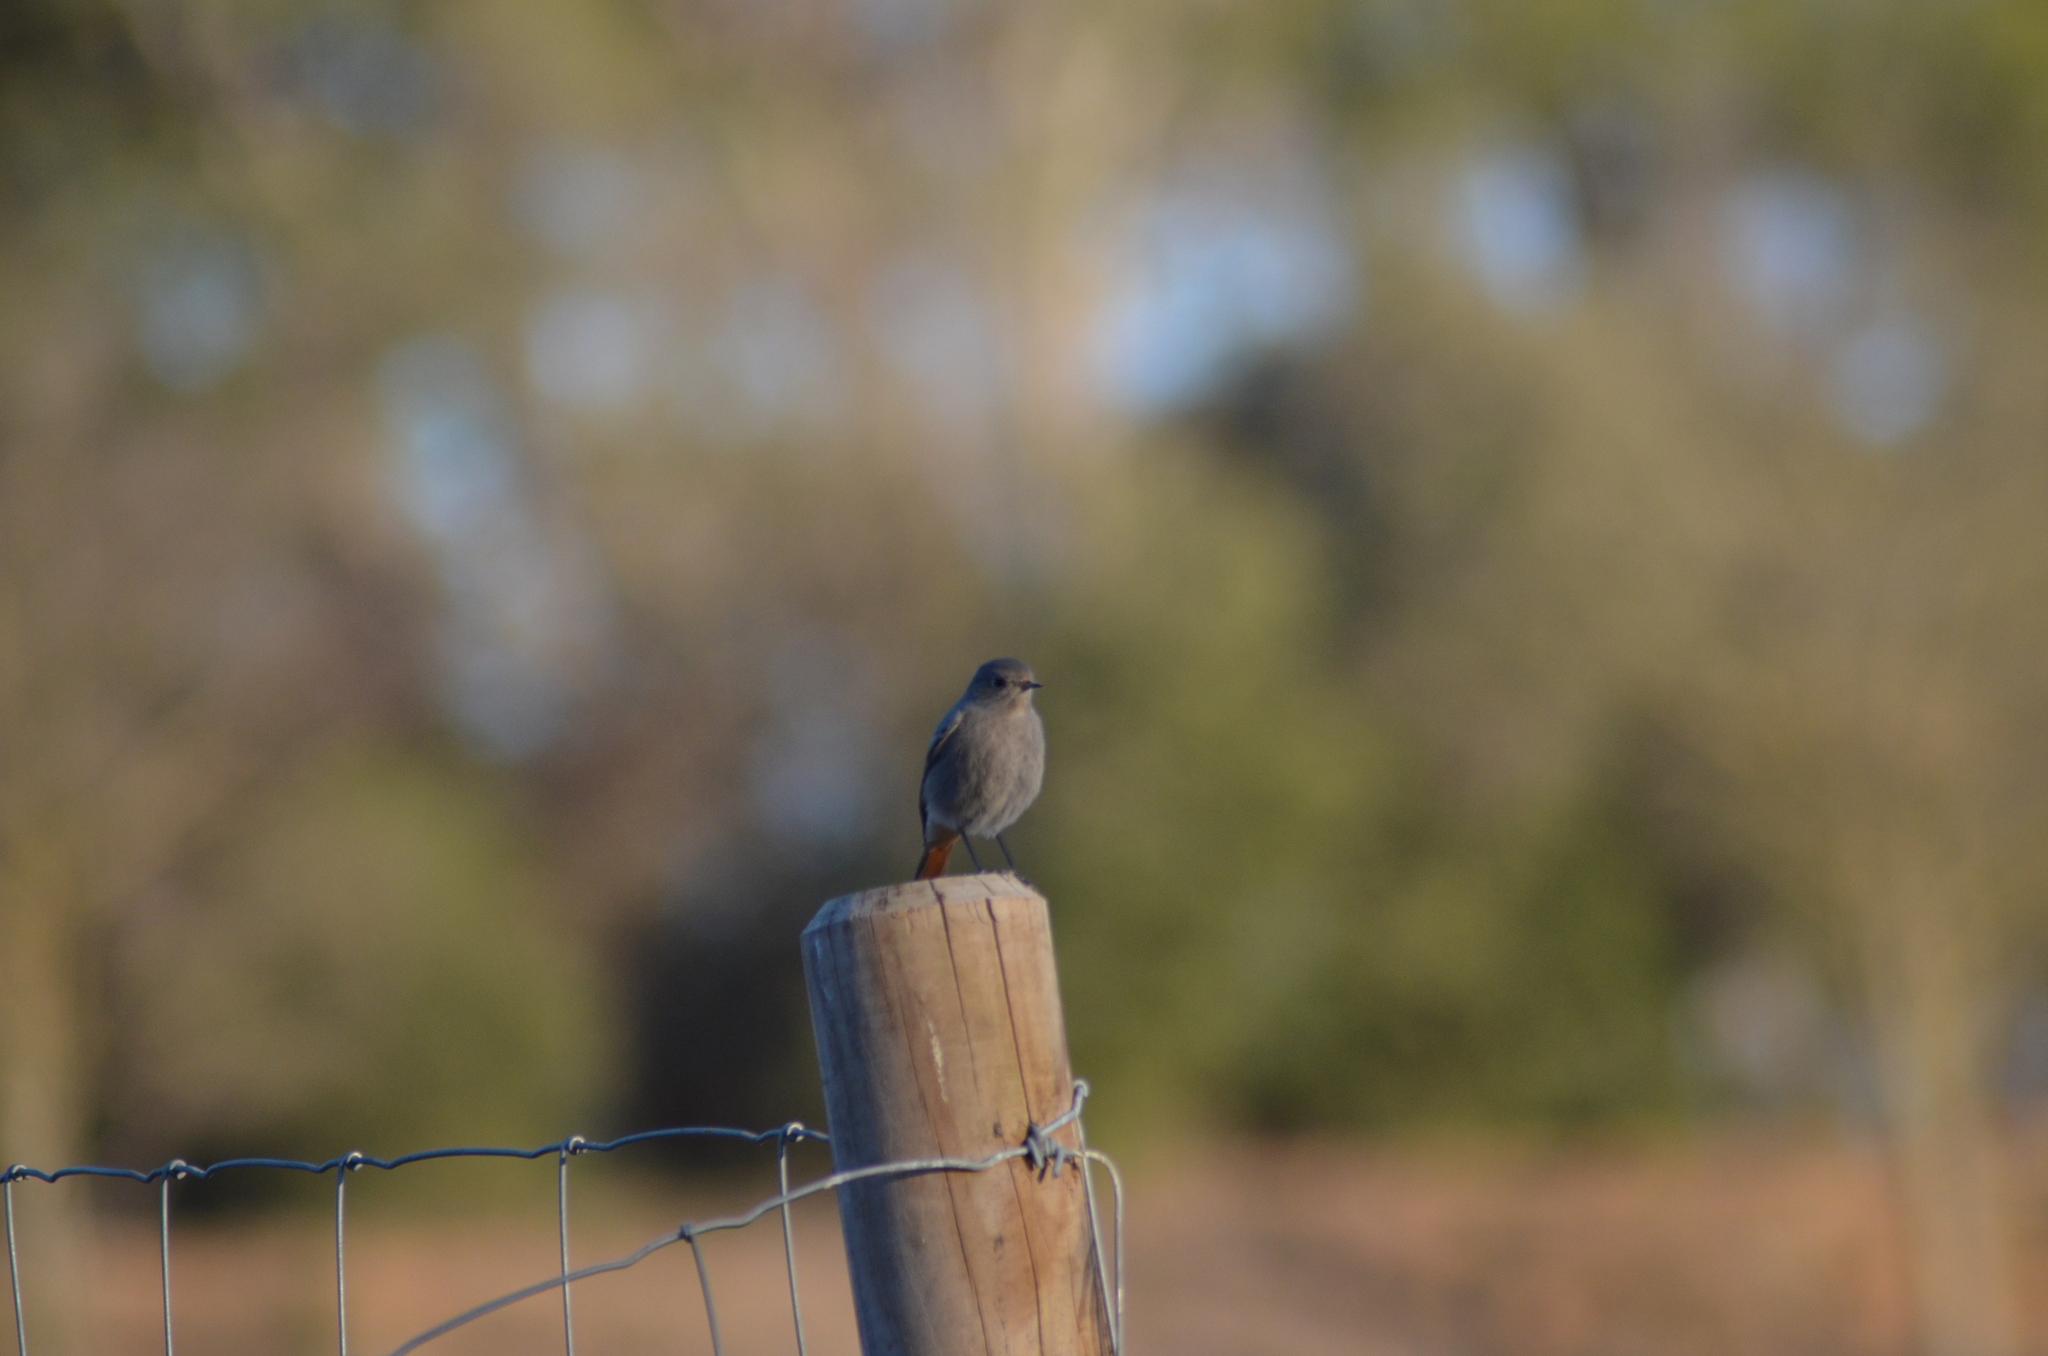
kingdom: Animalia
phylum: Chordata
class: Aves
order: Passeriformes
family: Muscicapidae
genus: Phoenicurus
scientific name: Phoenicurus ochruros
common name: Black redstart
